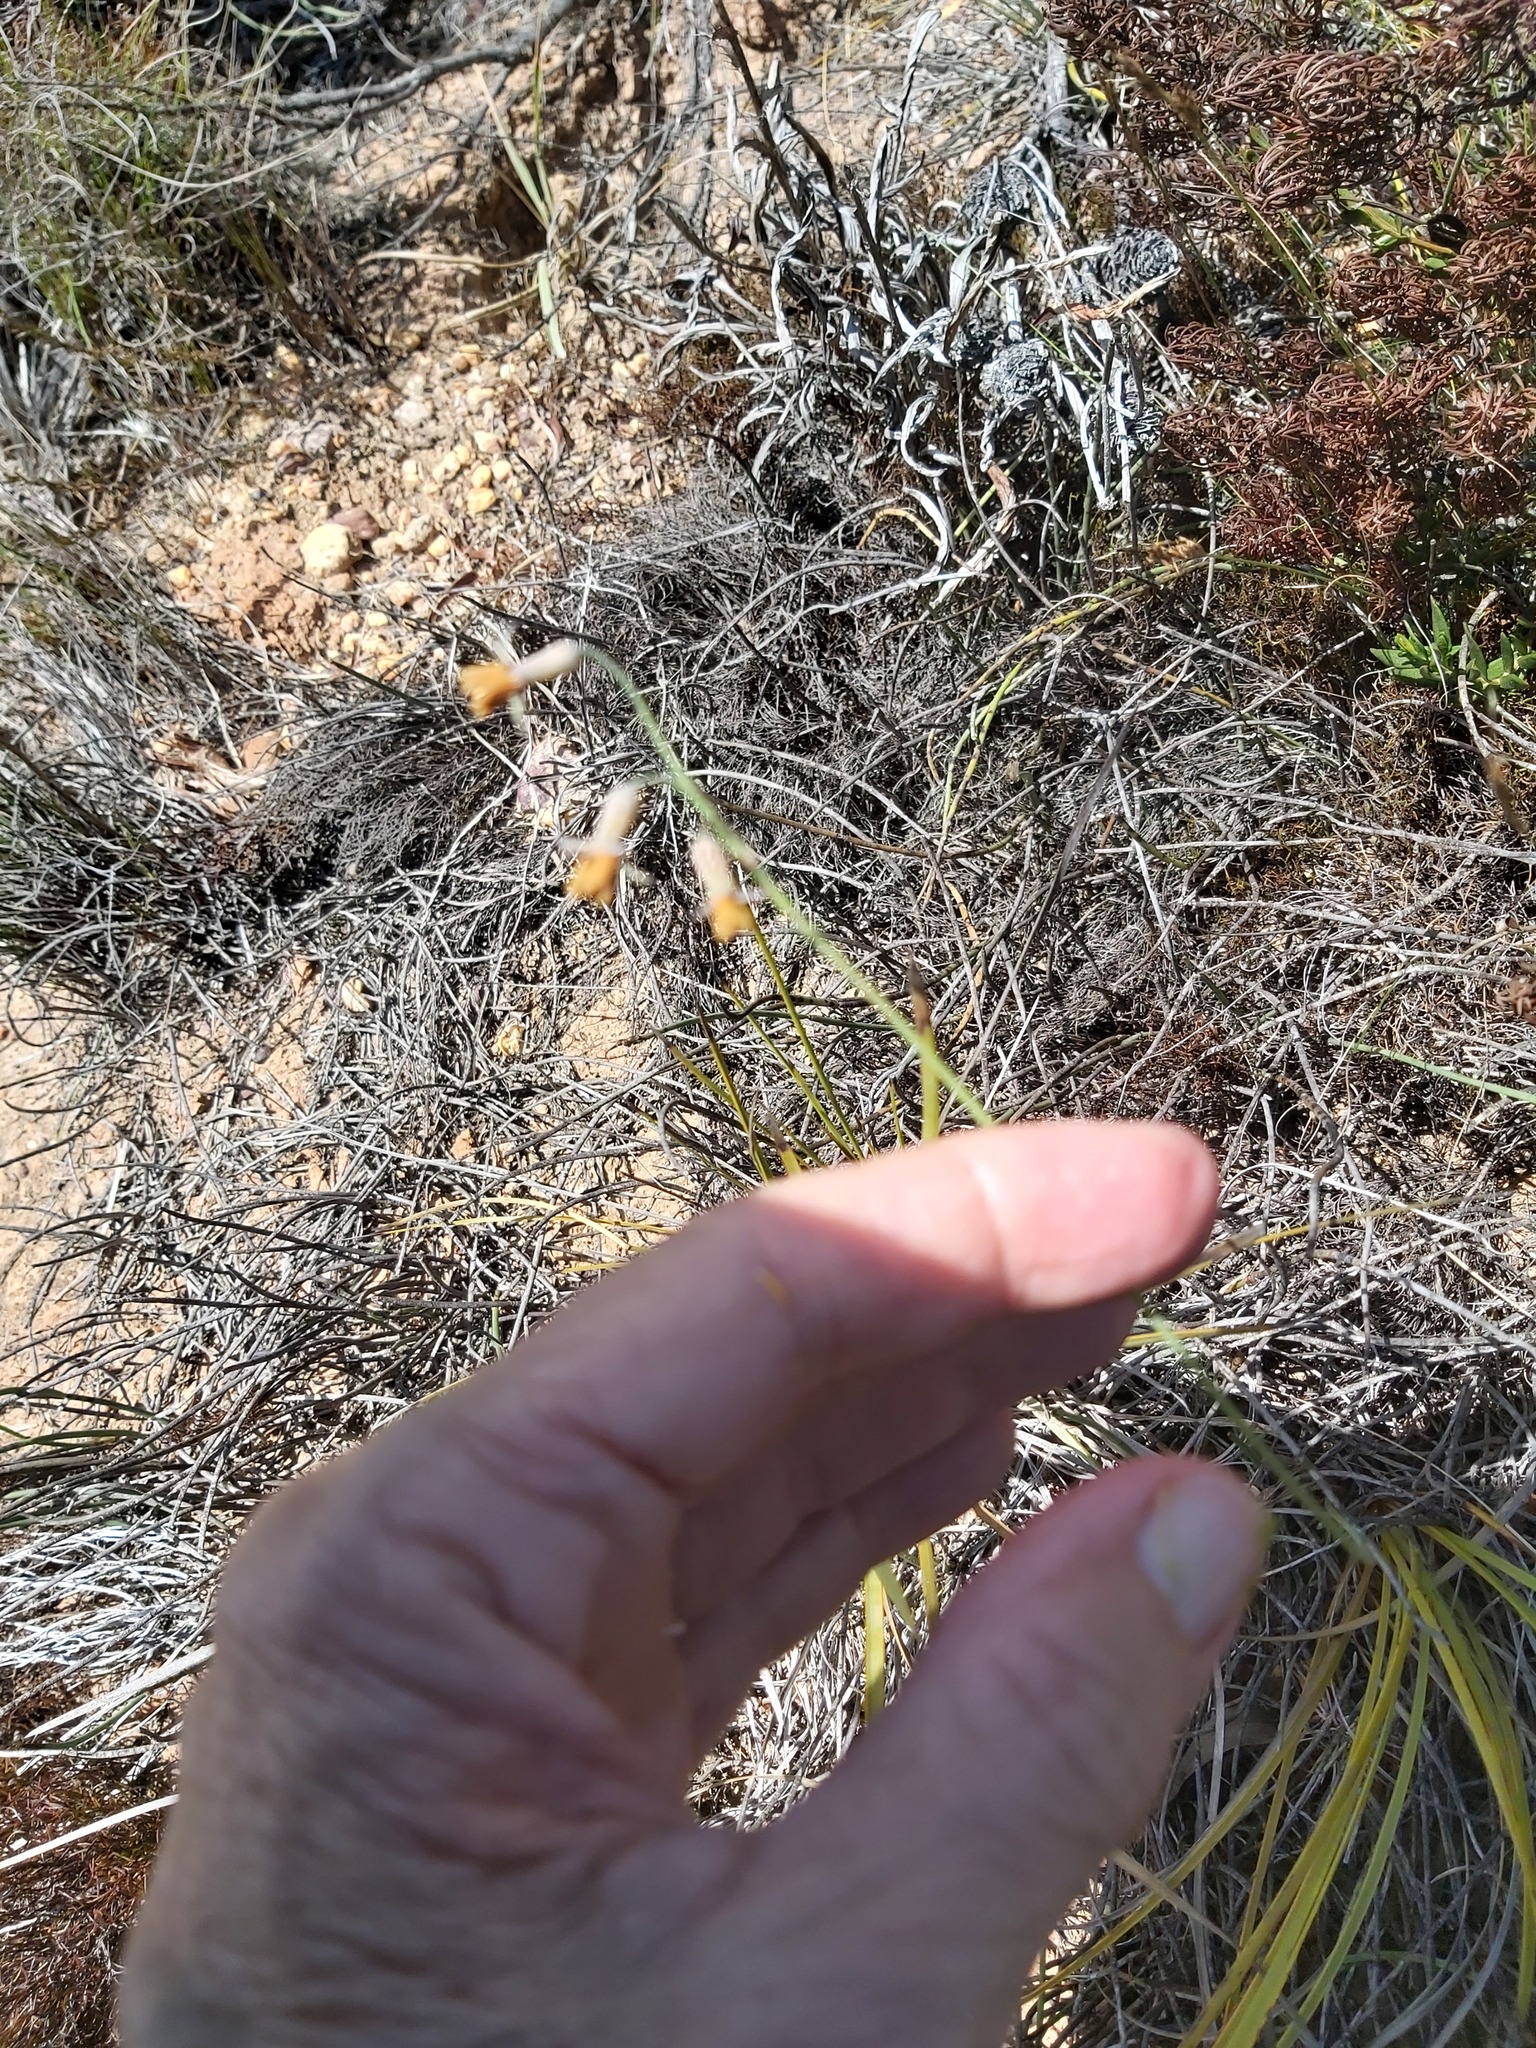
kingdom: Plantae
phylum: Tracheophyta
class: Liliopsida
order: Asparagales
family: Amaryllidaceae
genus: Tulbaghia
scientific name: Tulbaghia alliacea
